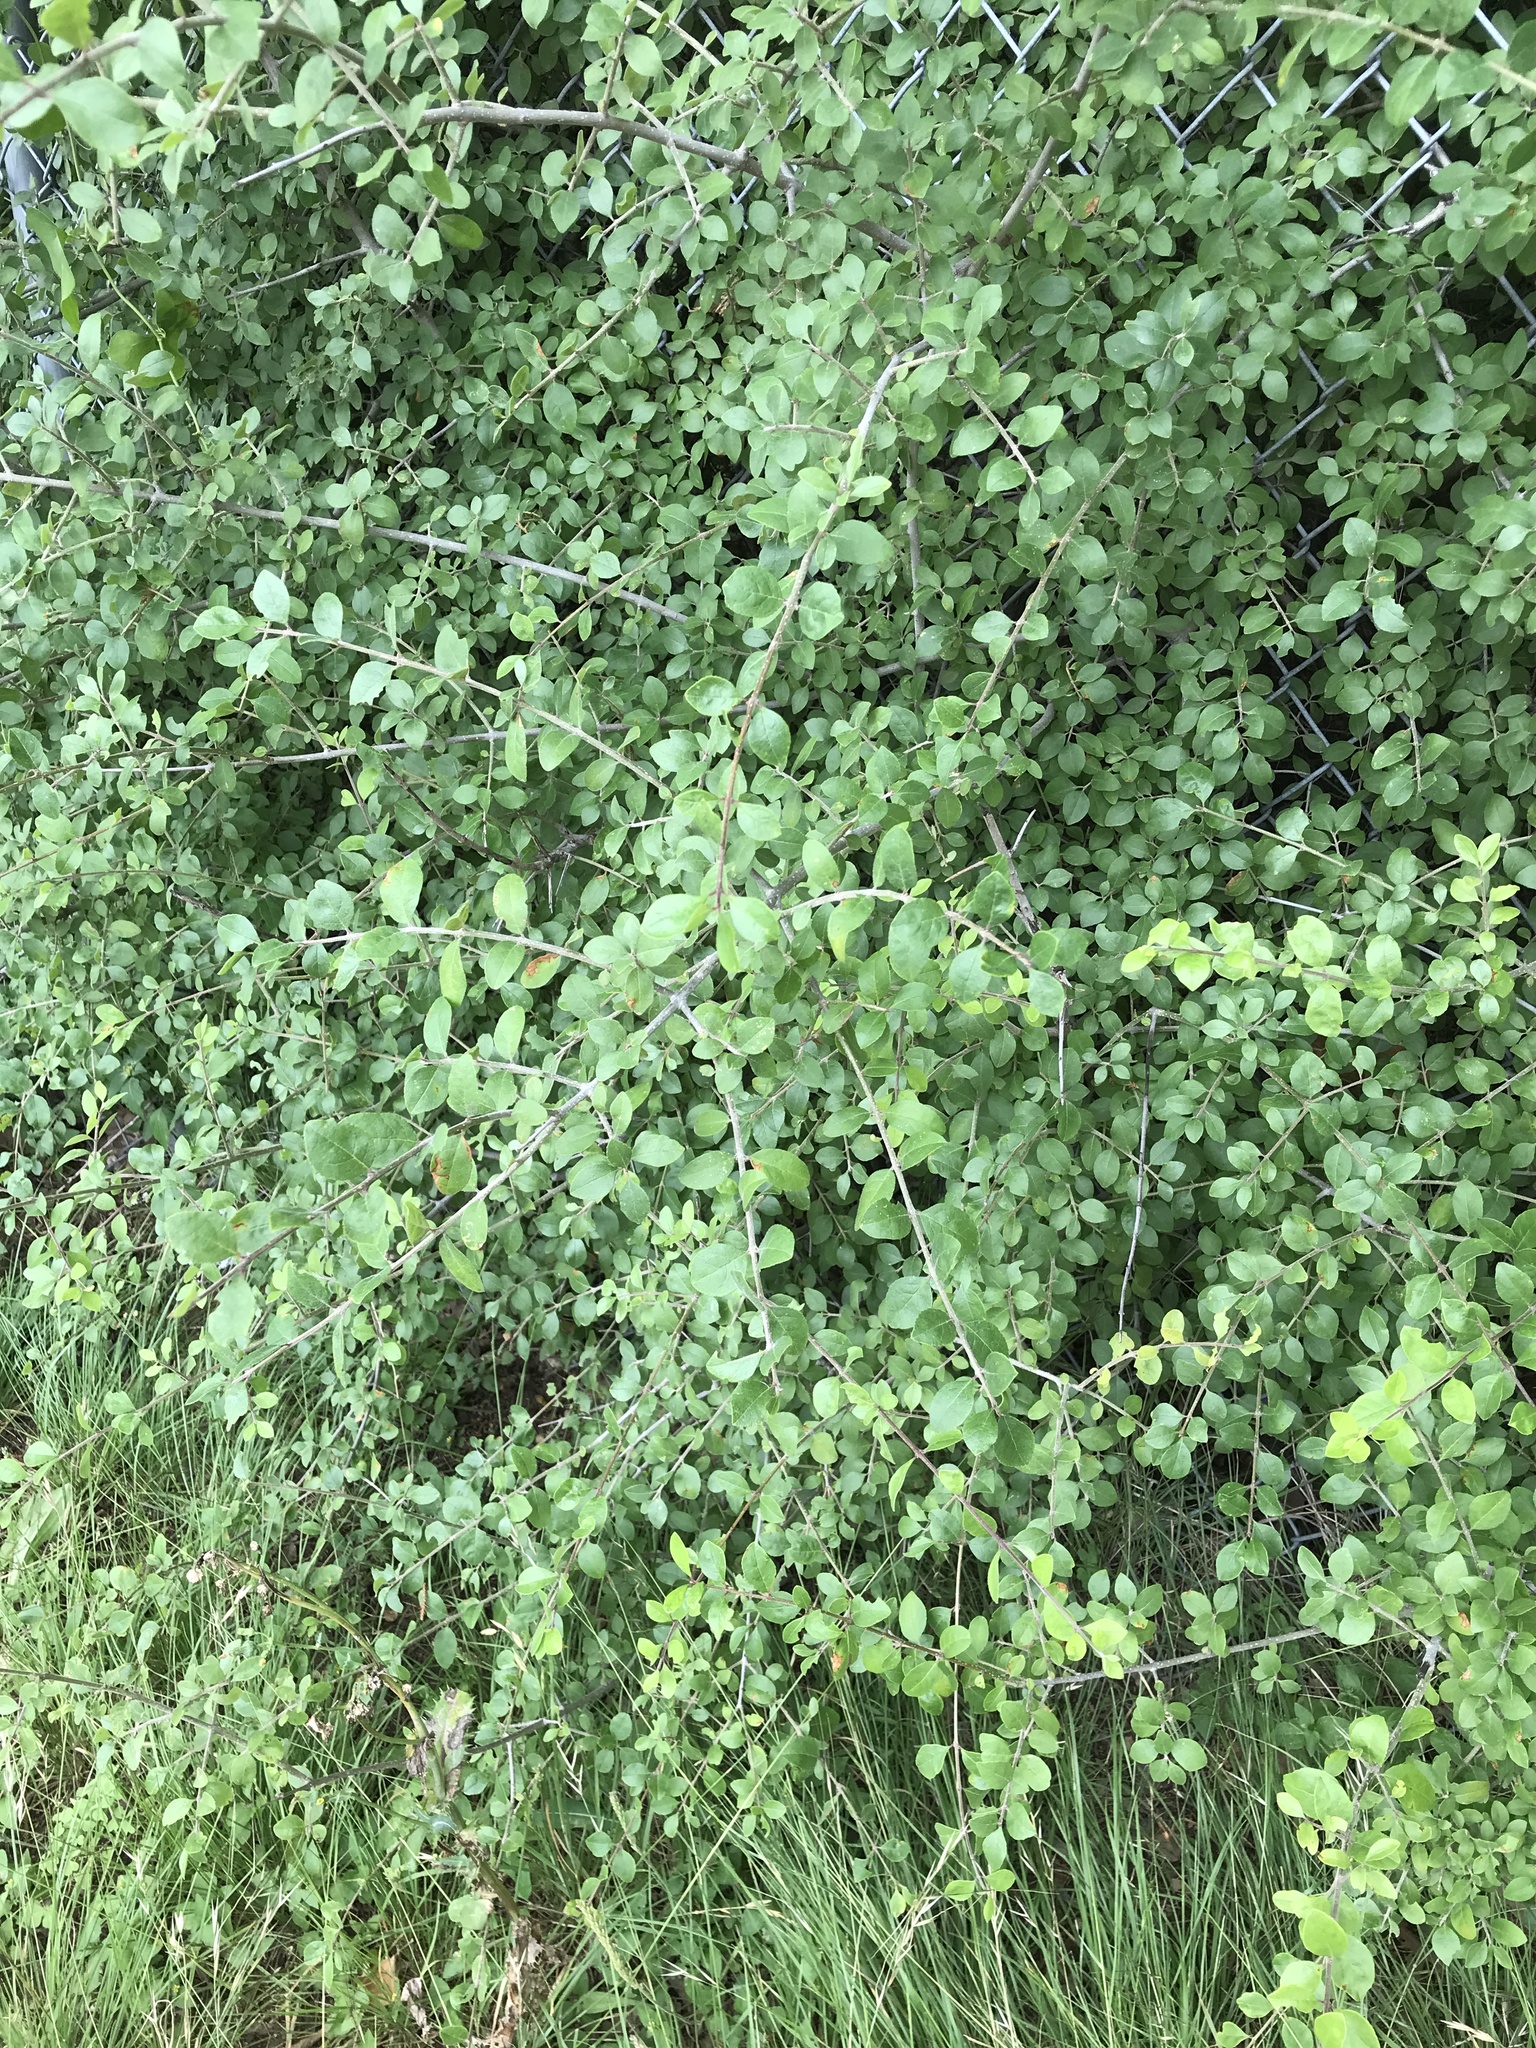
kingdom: Plantae
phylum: Tracheophyta
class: Magnoliopsida
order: Lamiales
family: Oleaceae
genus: Forestiera
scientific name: Forestiera pubescens
